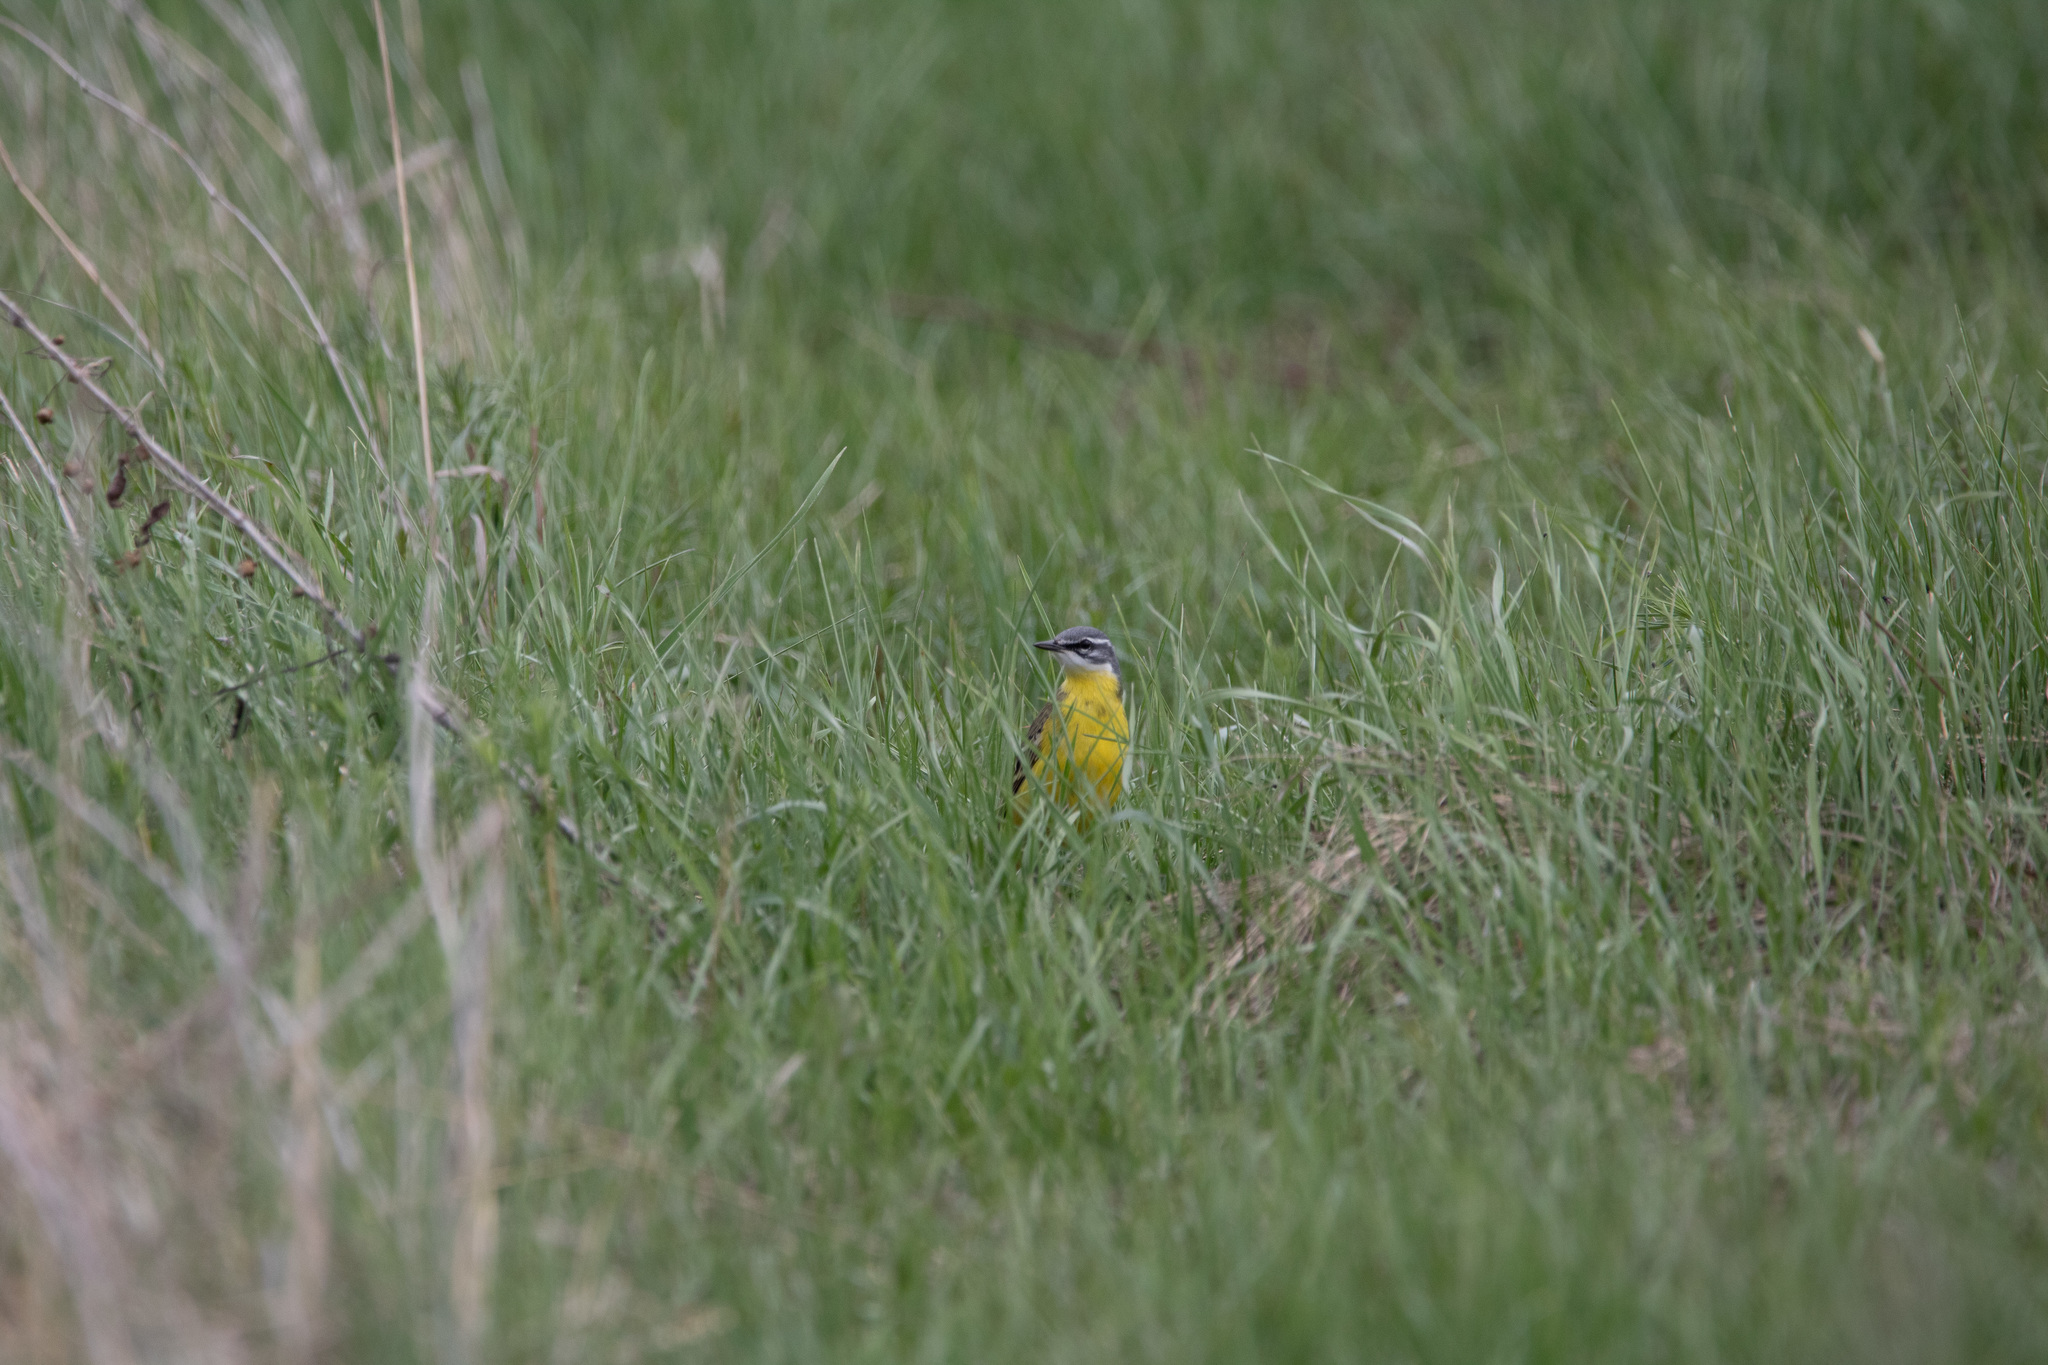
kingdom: Animalia
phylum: Chordata
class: Aves
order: Passeriformes
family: Motacillidae
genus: Motacilla
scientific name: Motacilla flava
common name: Western yellow wagtail
